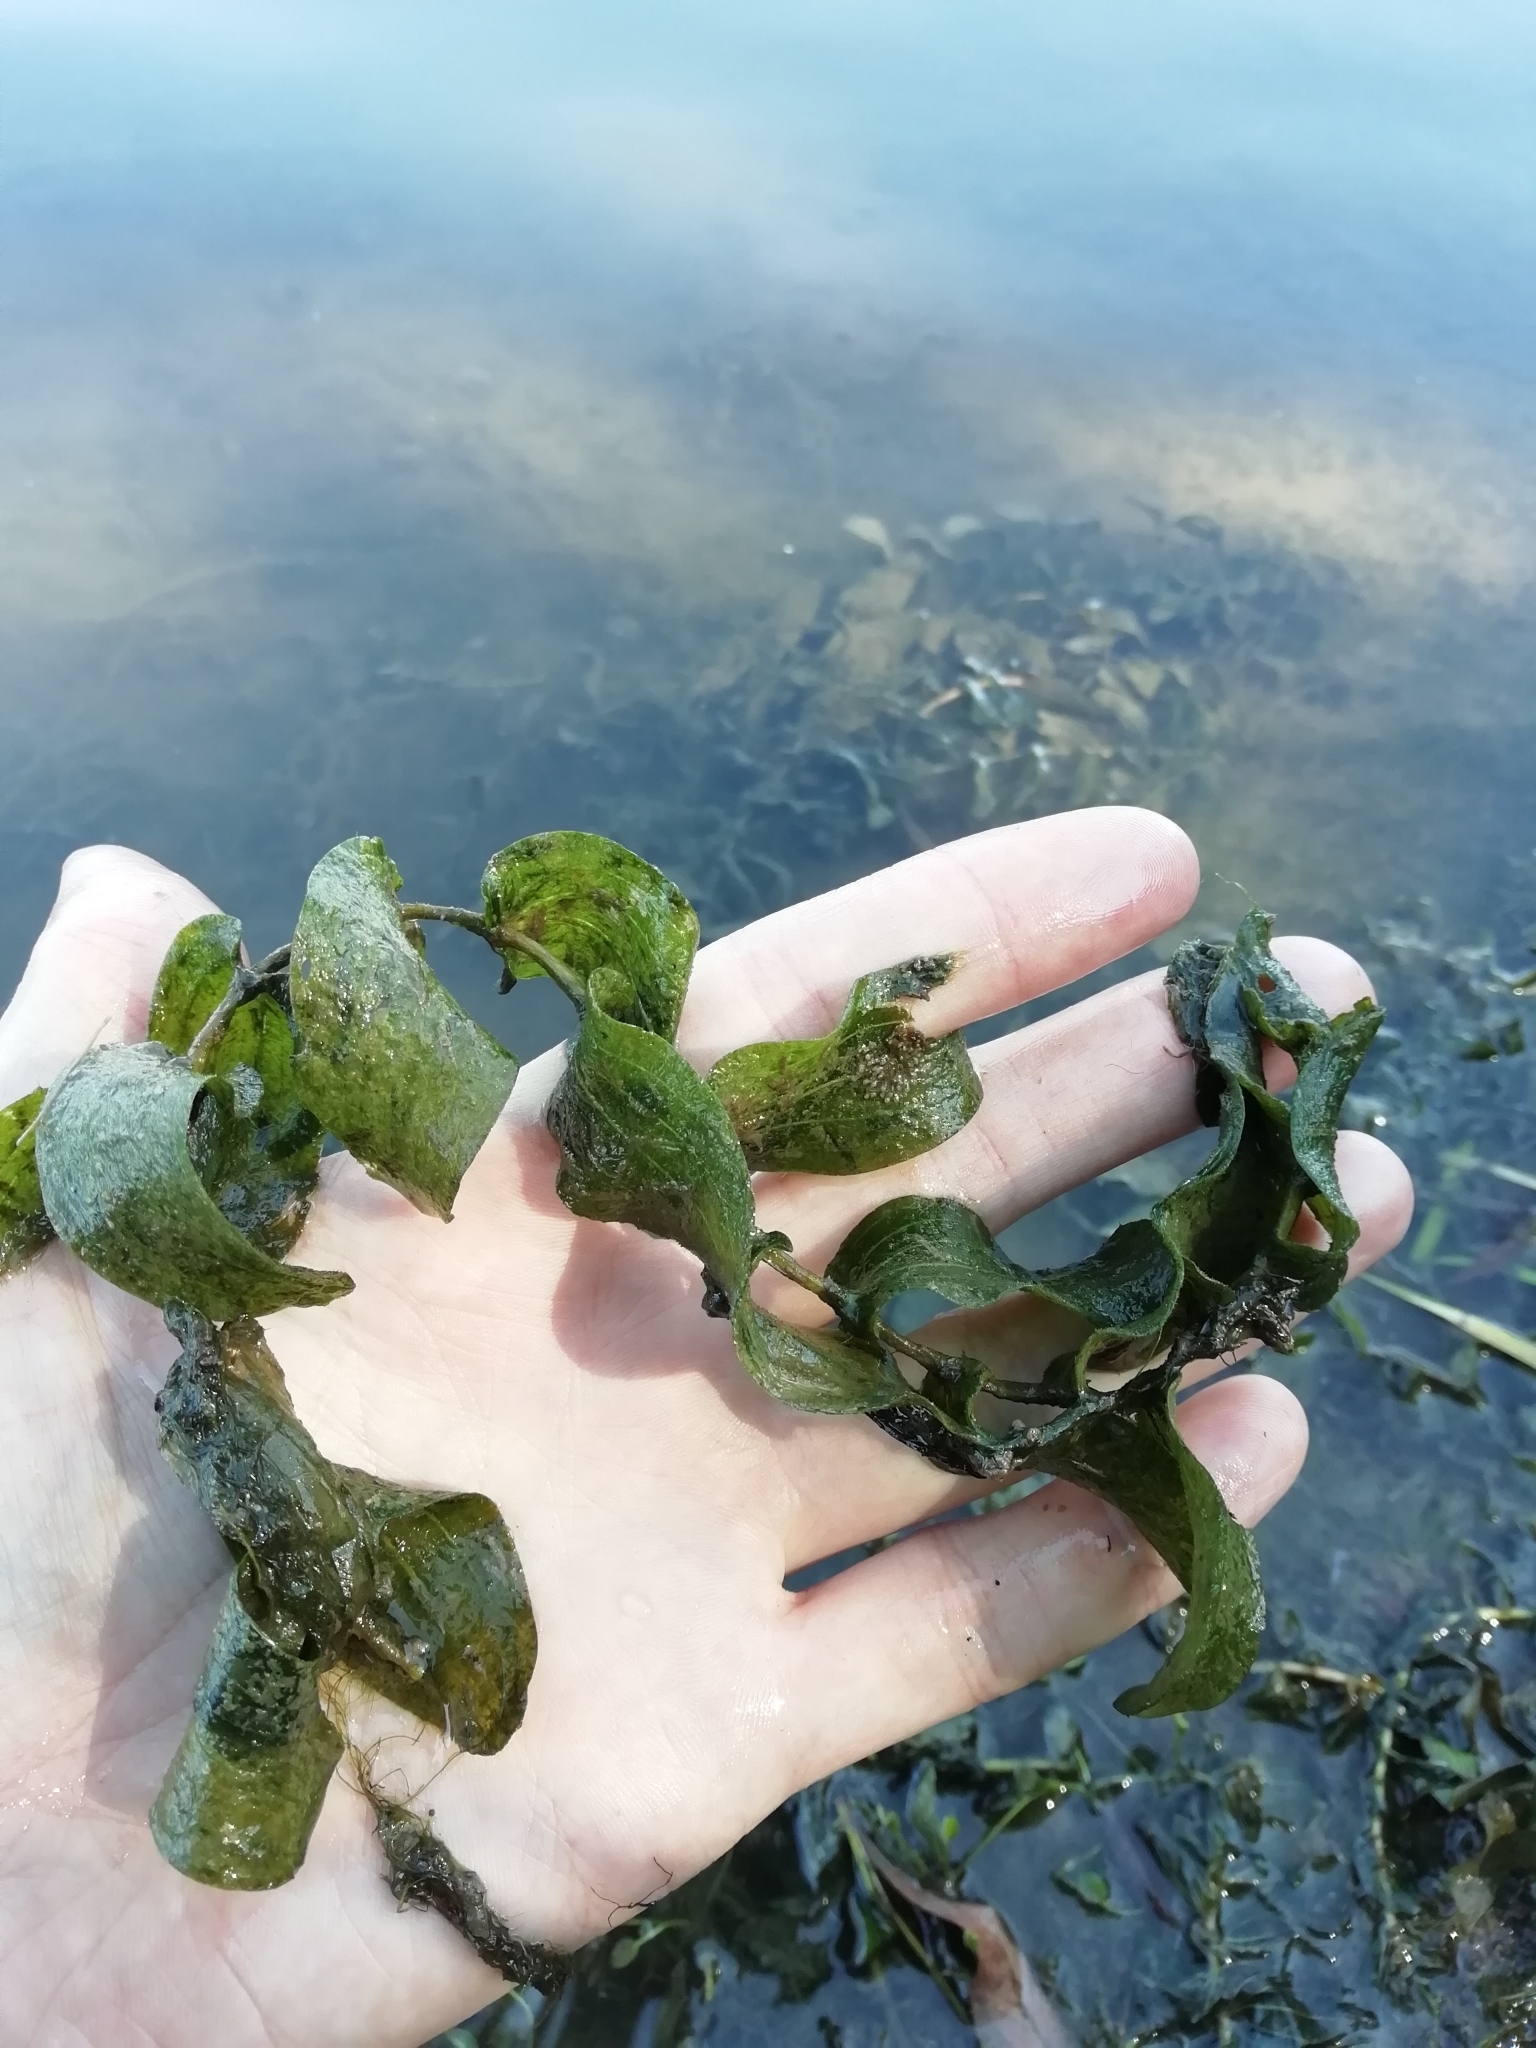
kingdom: Plantae
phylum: Tracheophyta
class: Liliopsida
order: Alismatales
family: Potamogetonaceae
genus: Potamogeton
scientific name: Potamogeton perfoliatus
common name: Perfoliate pondweed
